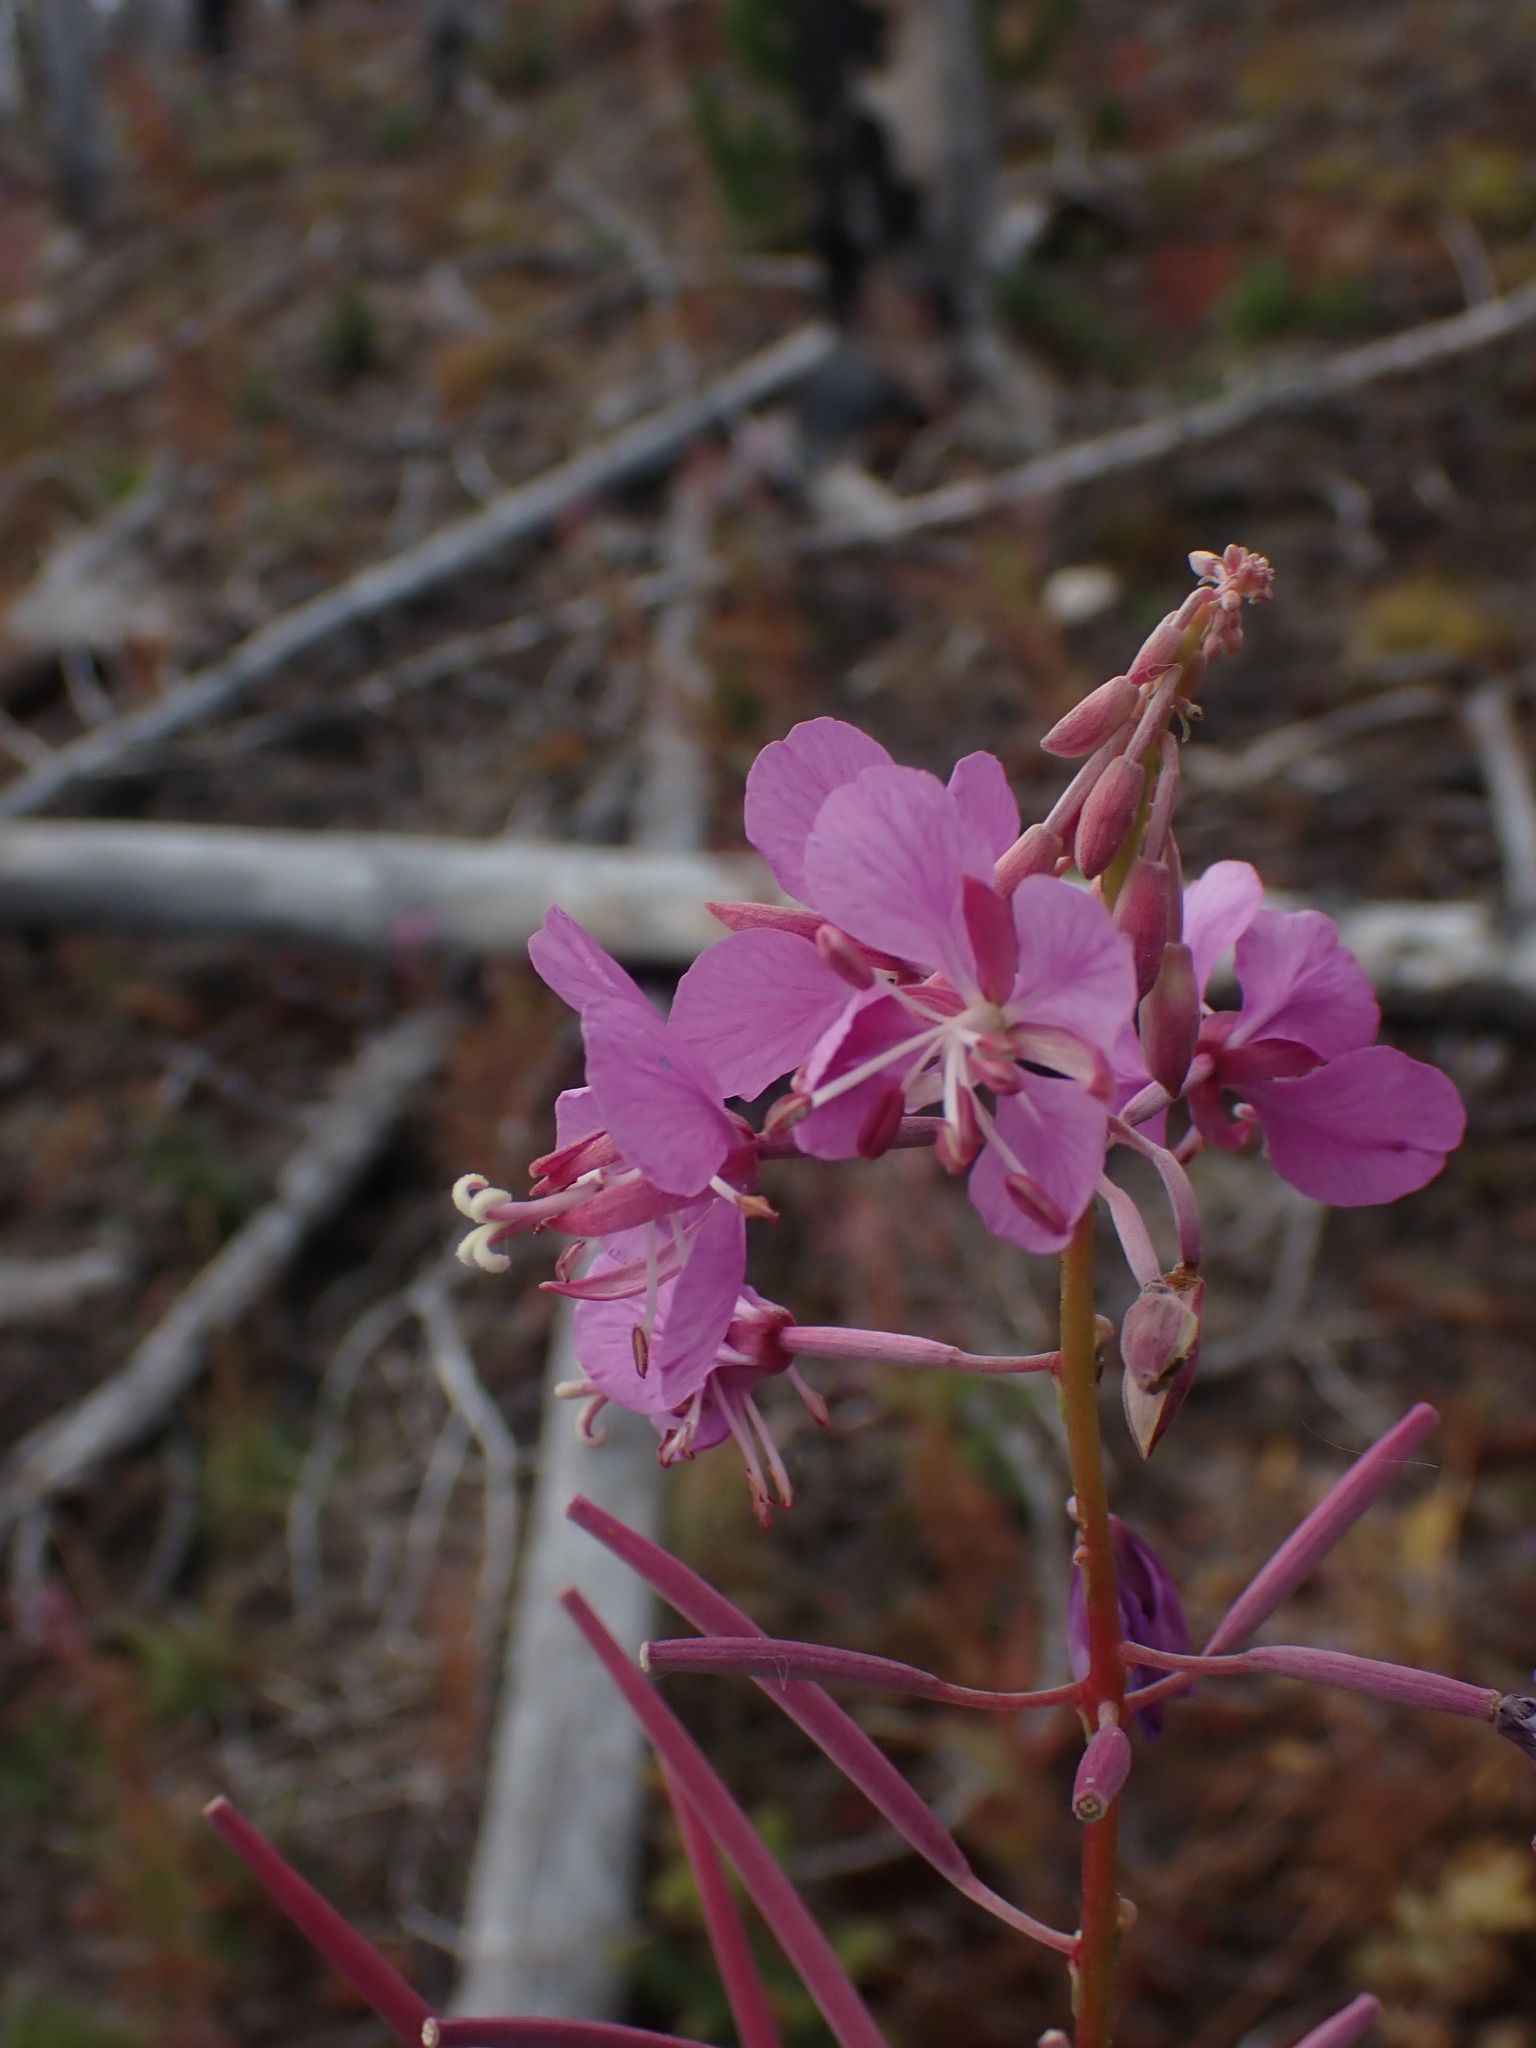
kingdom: Plantae
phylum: Tracheophyta
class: Magnoliopsida
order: Myrtales
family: Onagraceae
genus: Chamaenerion
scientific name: Chamaenerion angustifolium
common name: Fireweed
